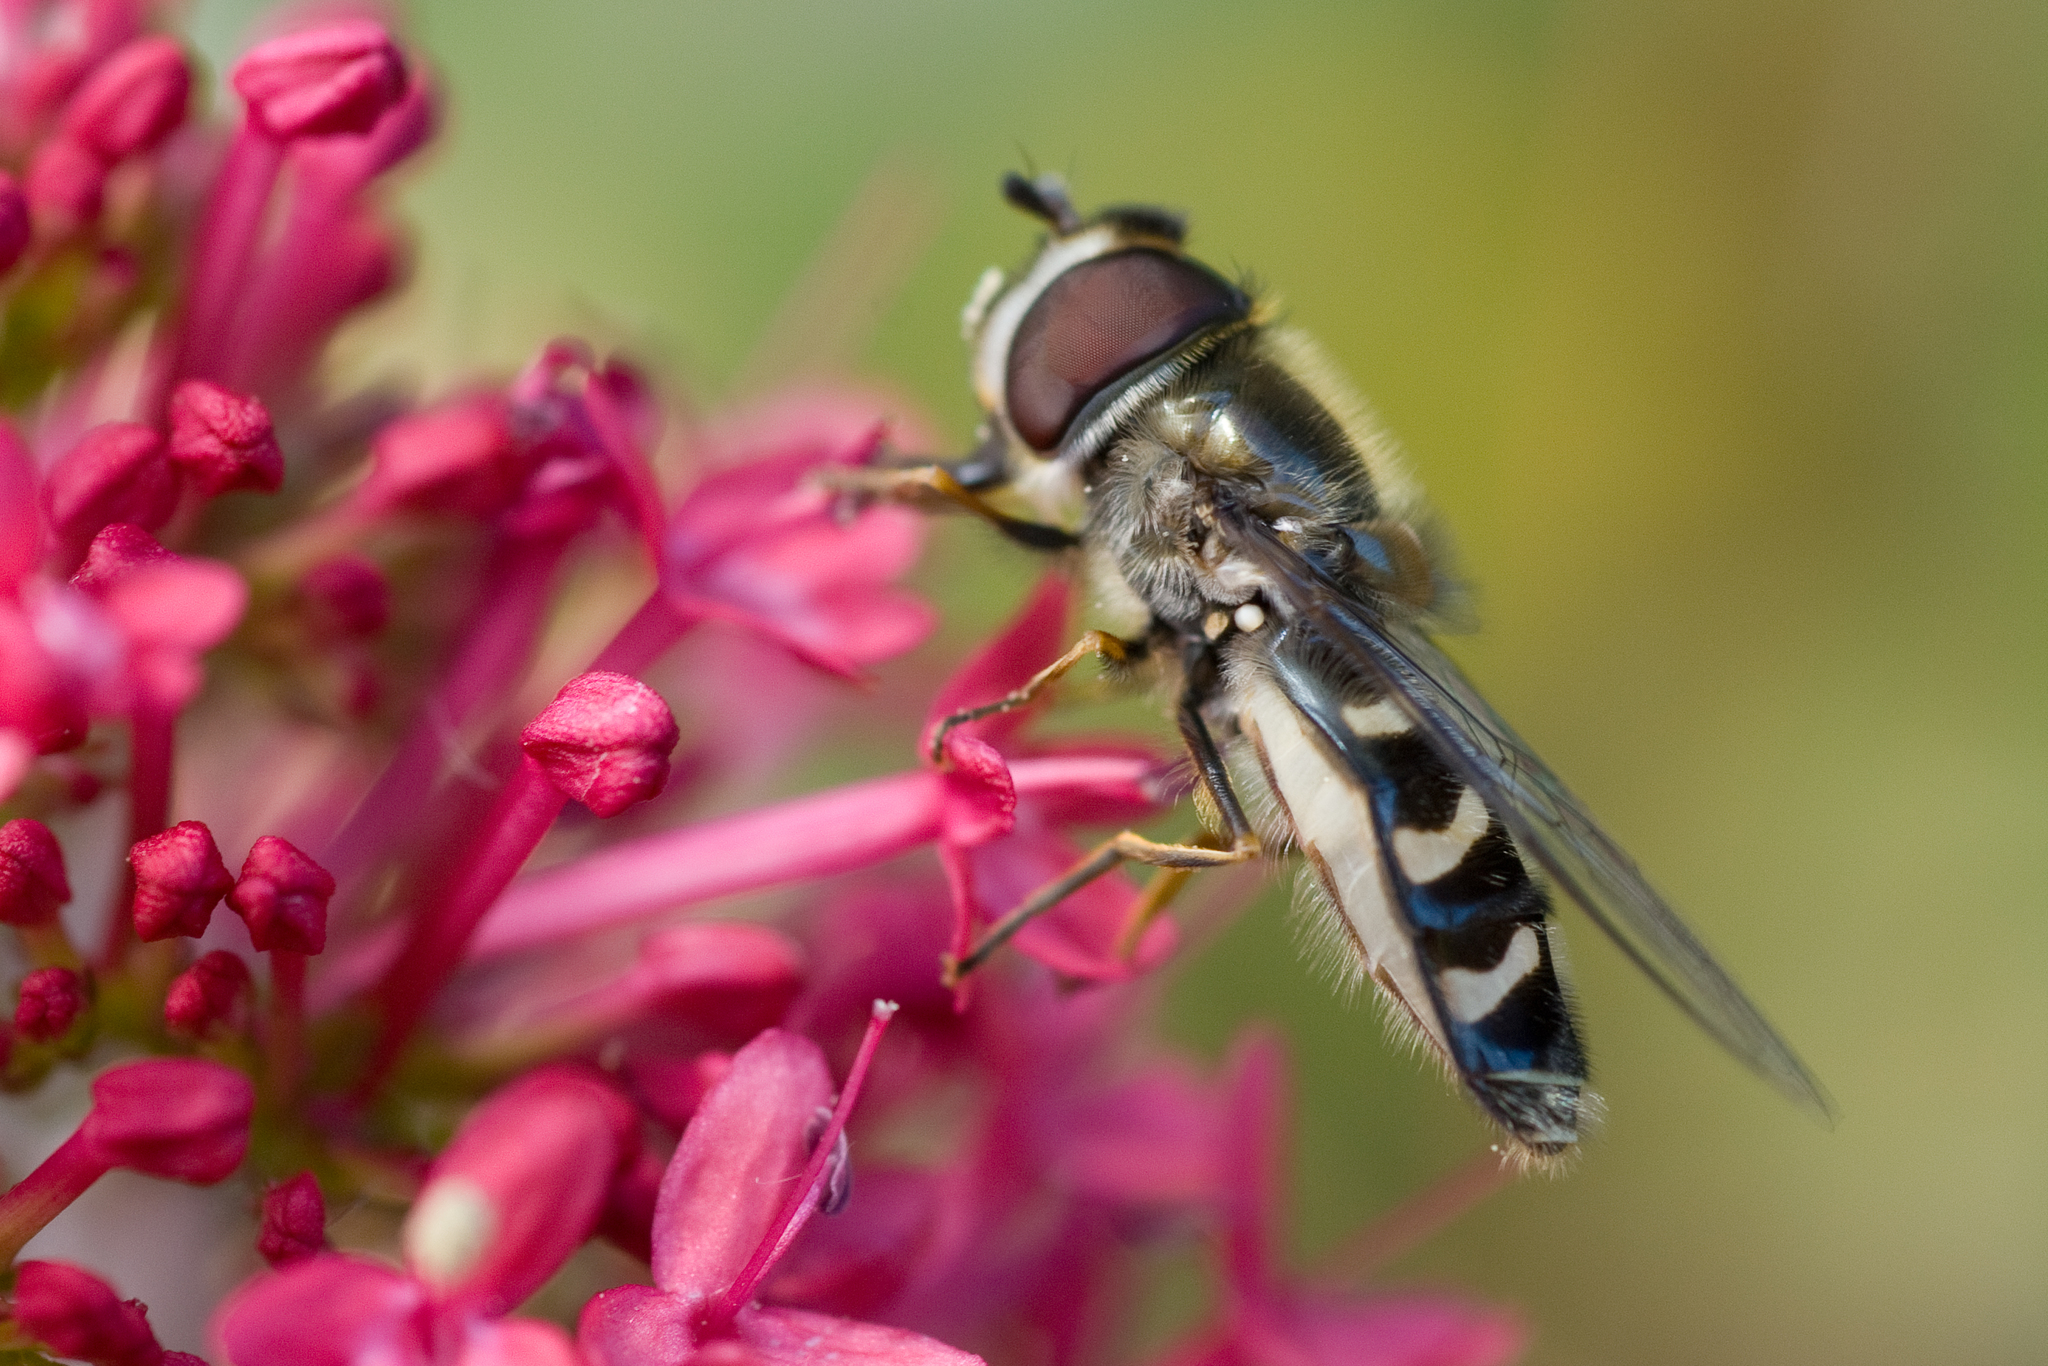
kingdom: Animalia
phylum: Arthropoda
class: Insecta
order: Diptera
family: Syrphidae
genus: Scaeva
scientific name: Scaeva affinis
